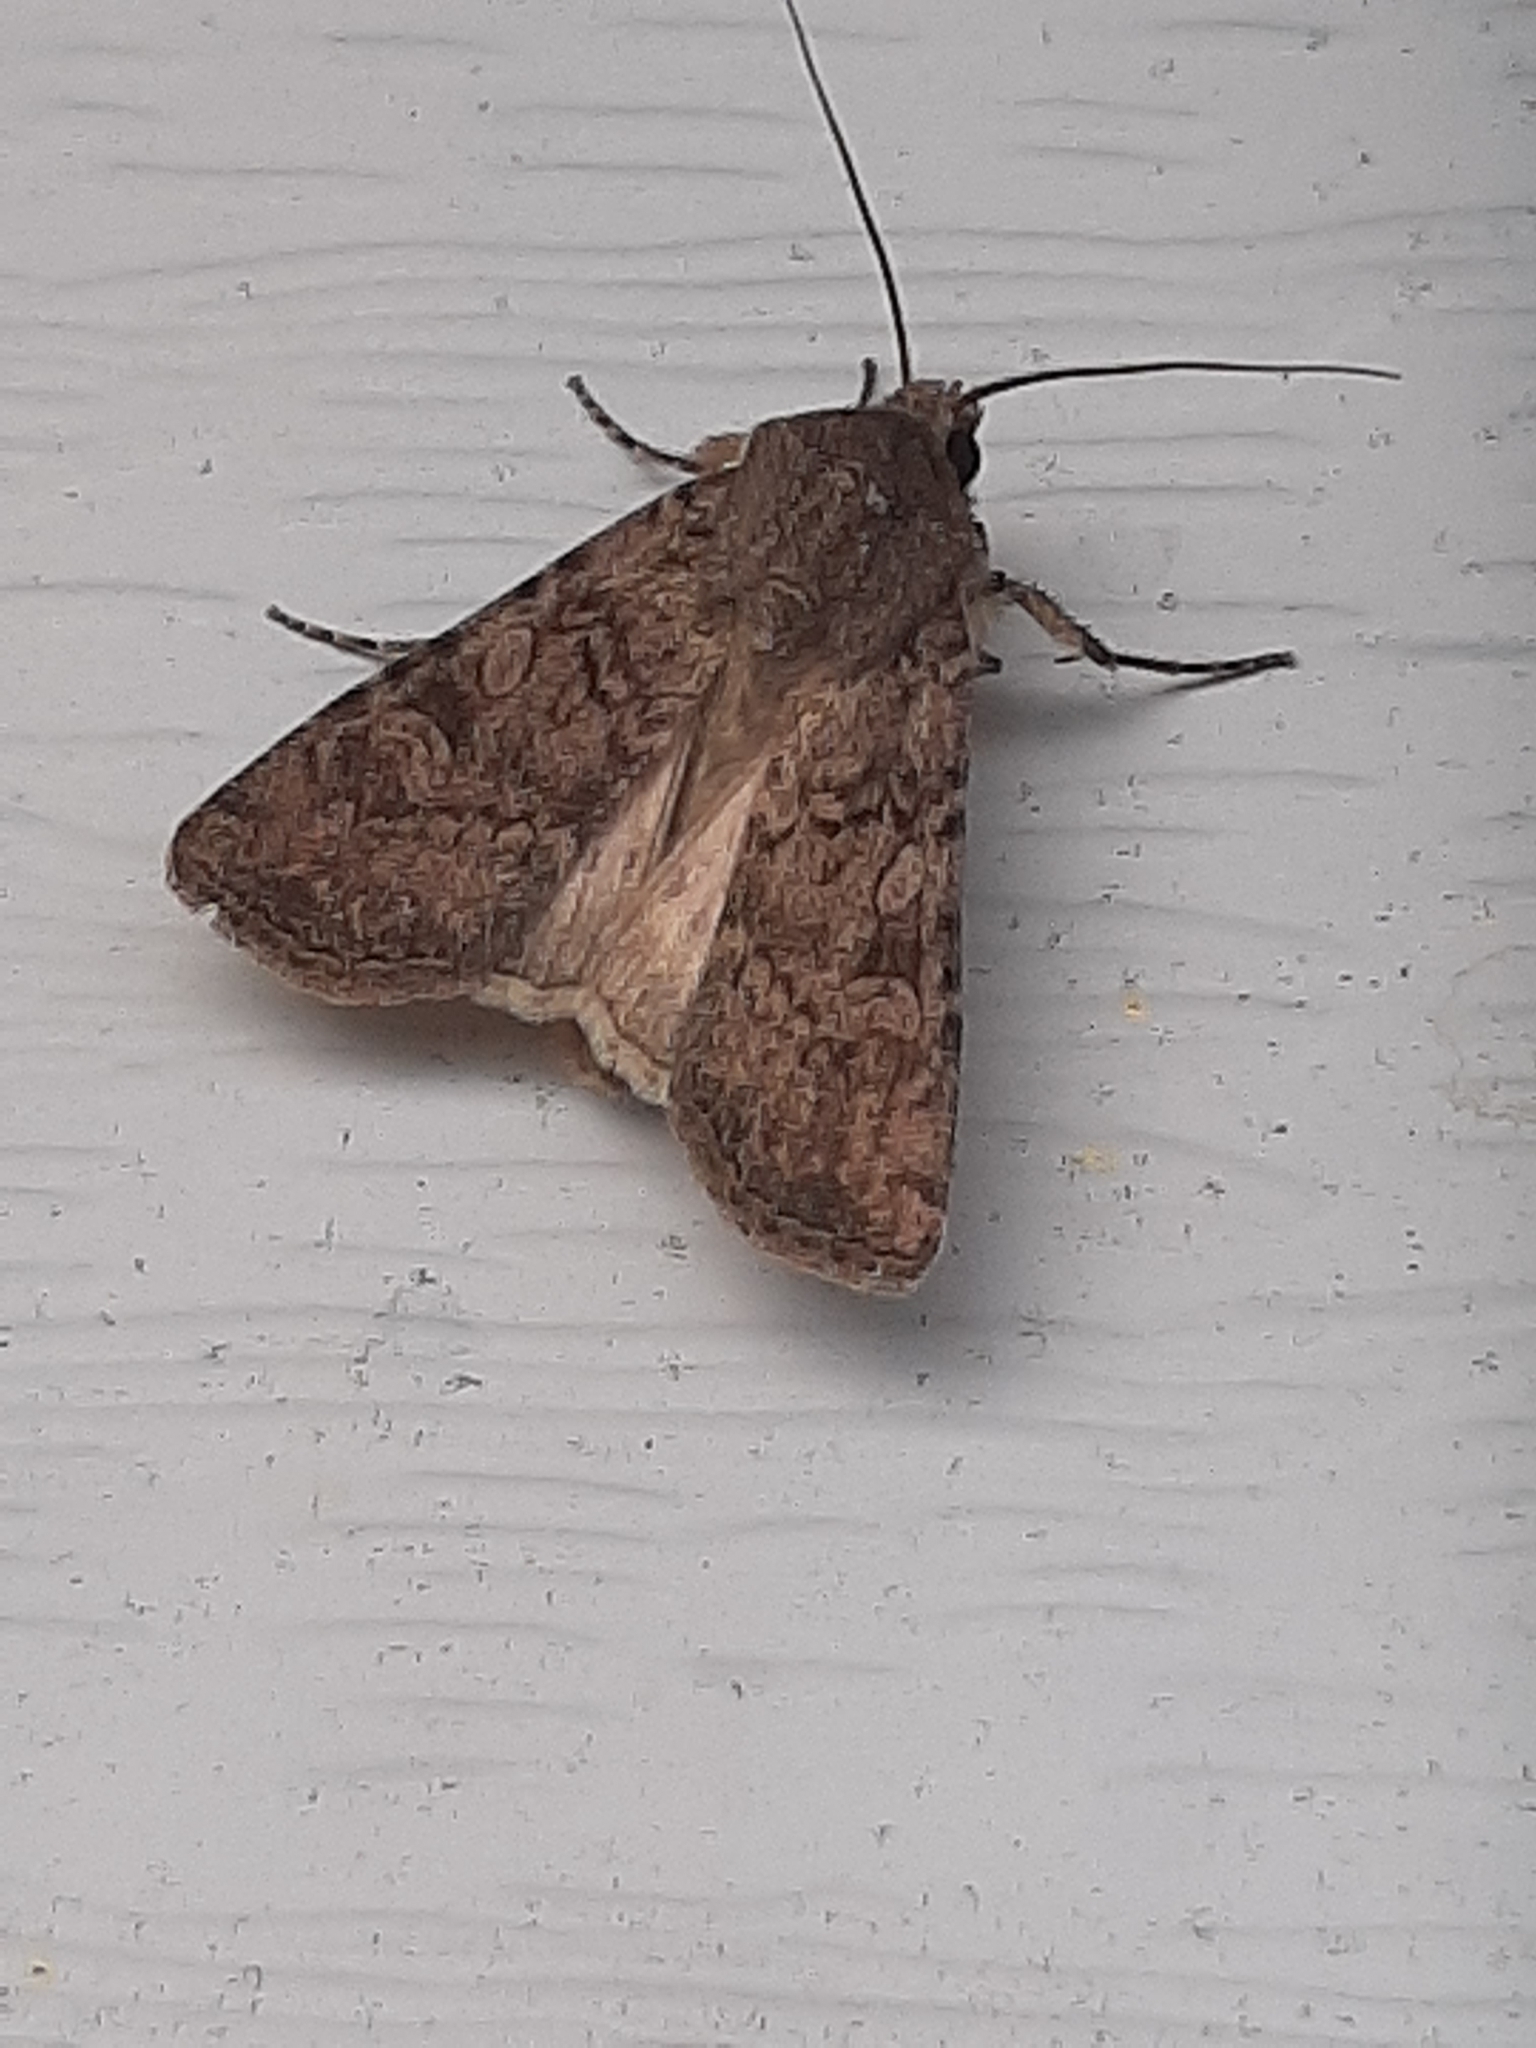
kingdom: Animalia
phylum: Arthropoda
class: Insecta
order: Lepidoptera
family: Noctuidae
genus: Euxoa
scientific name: Euxoa messoria
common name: Darksided cutworm
